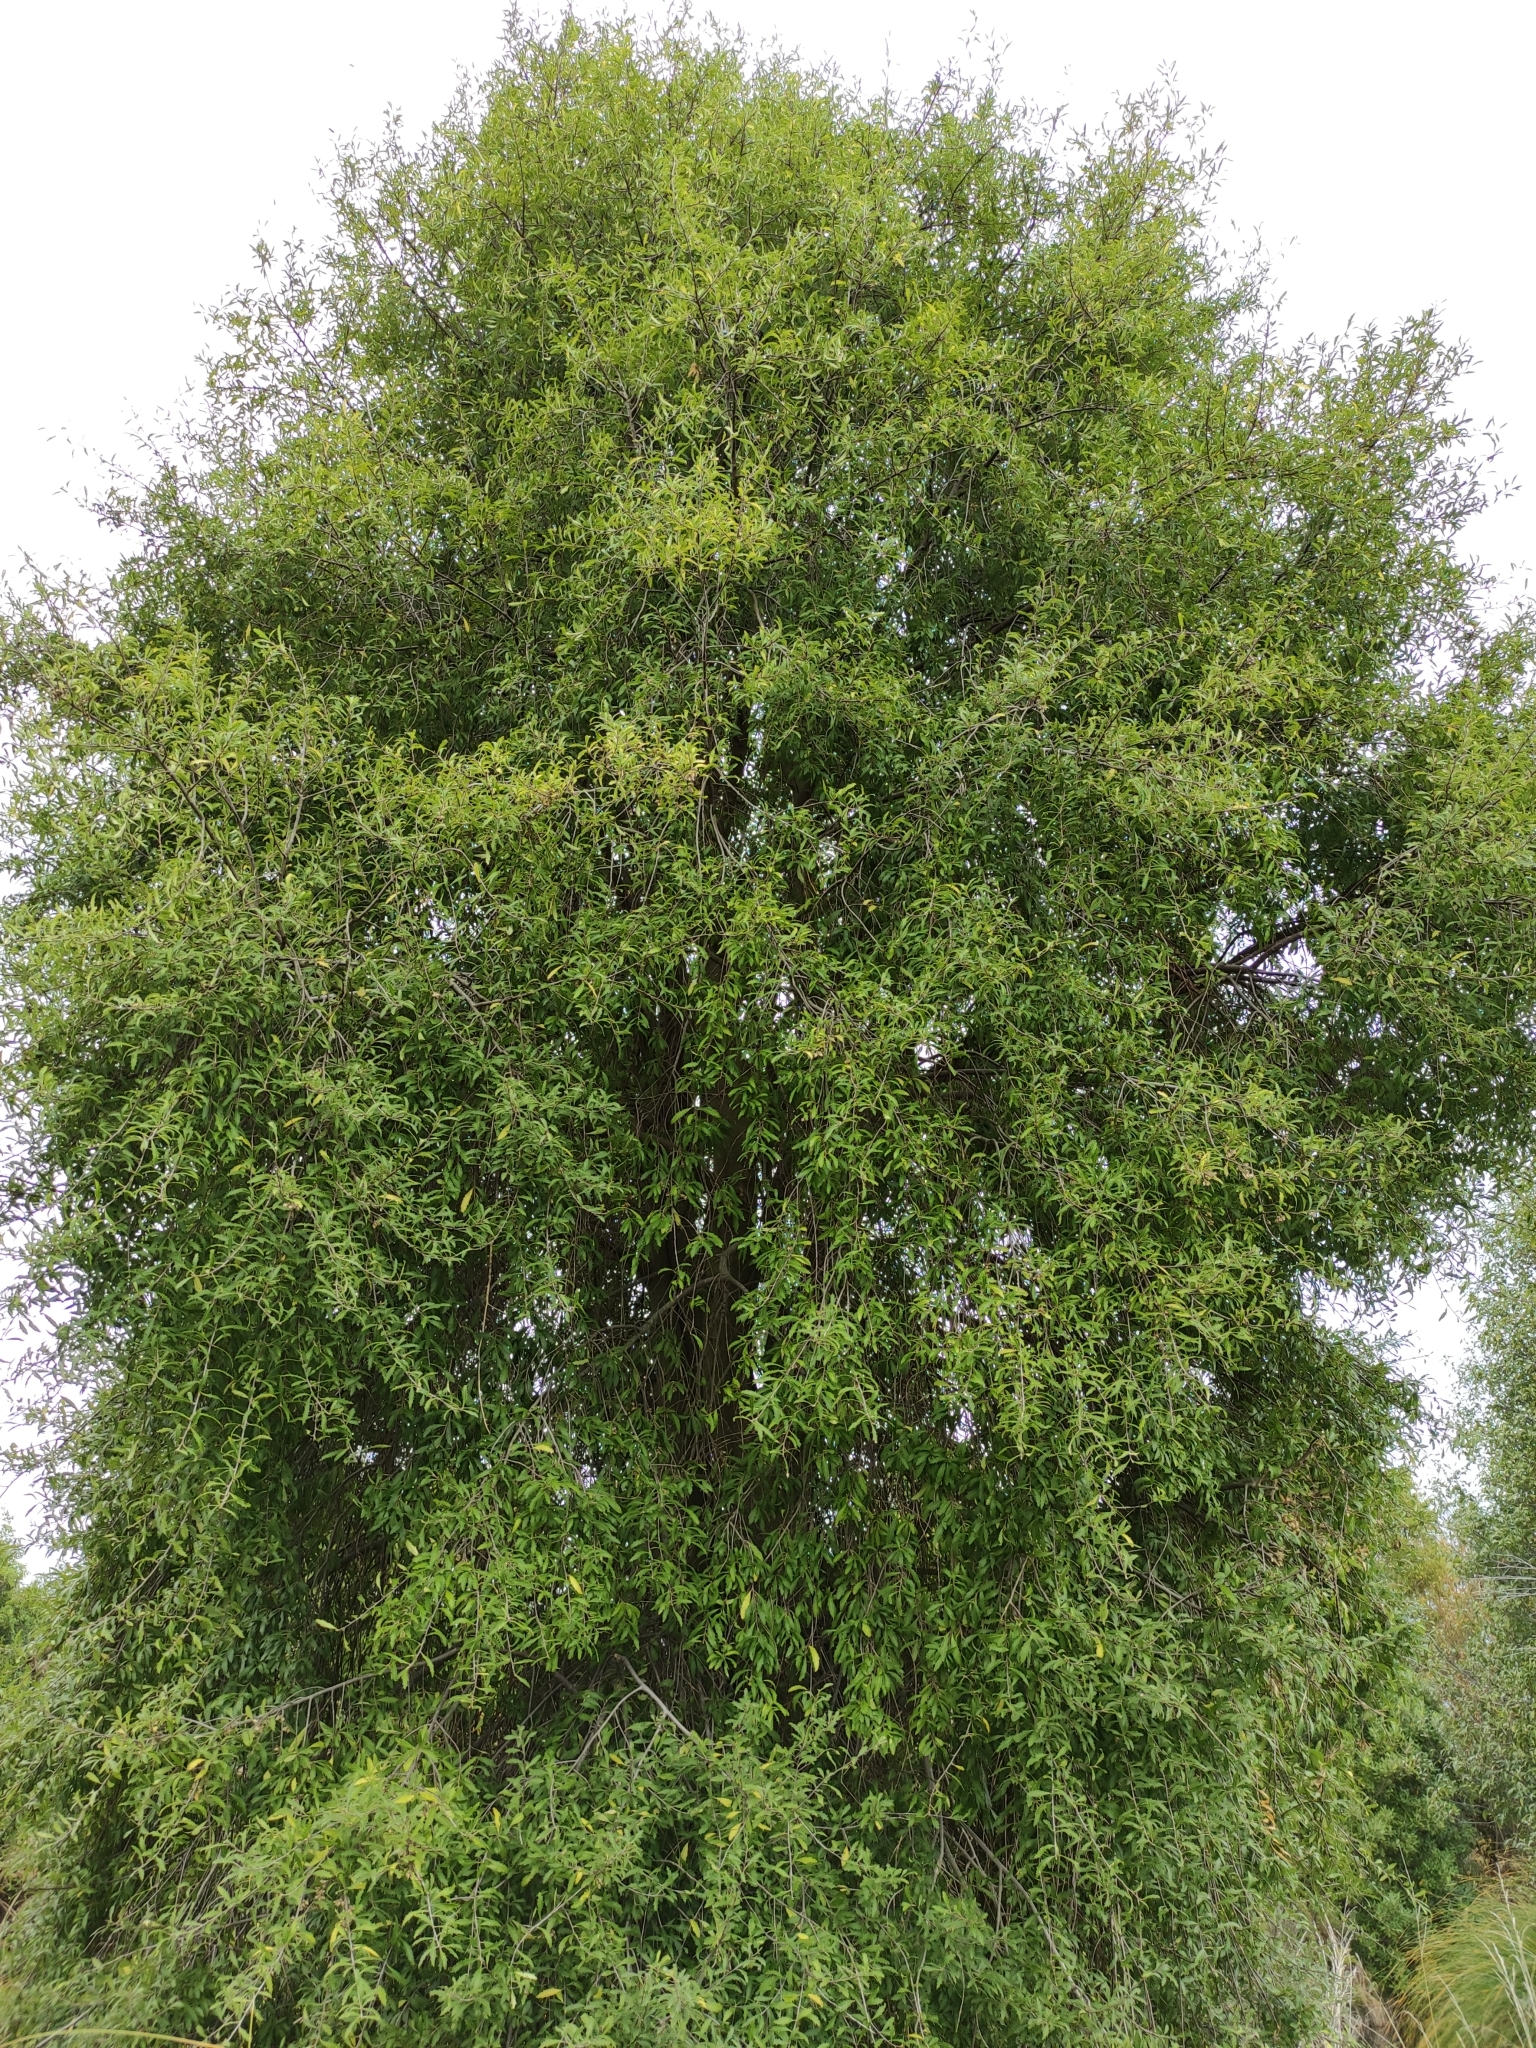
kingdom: Plantae
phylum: Tracheophyta
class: Magnoliopsida
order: Malvales
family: Malvaceae
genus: Hoheria
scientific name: Hoheria angustifolia
